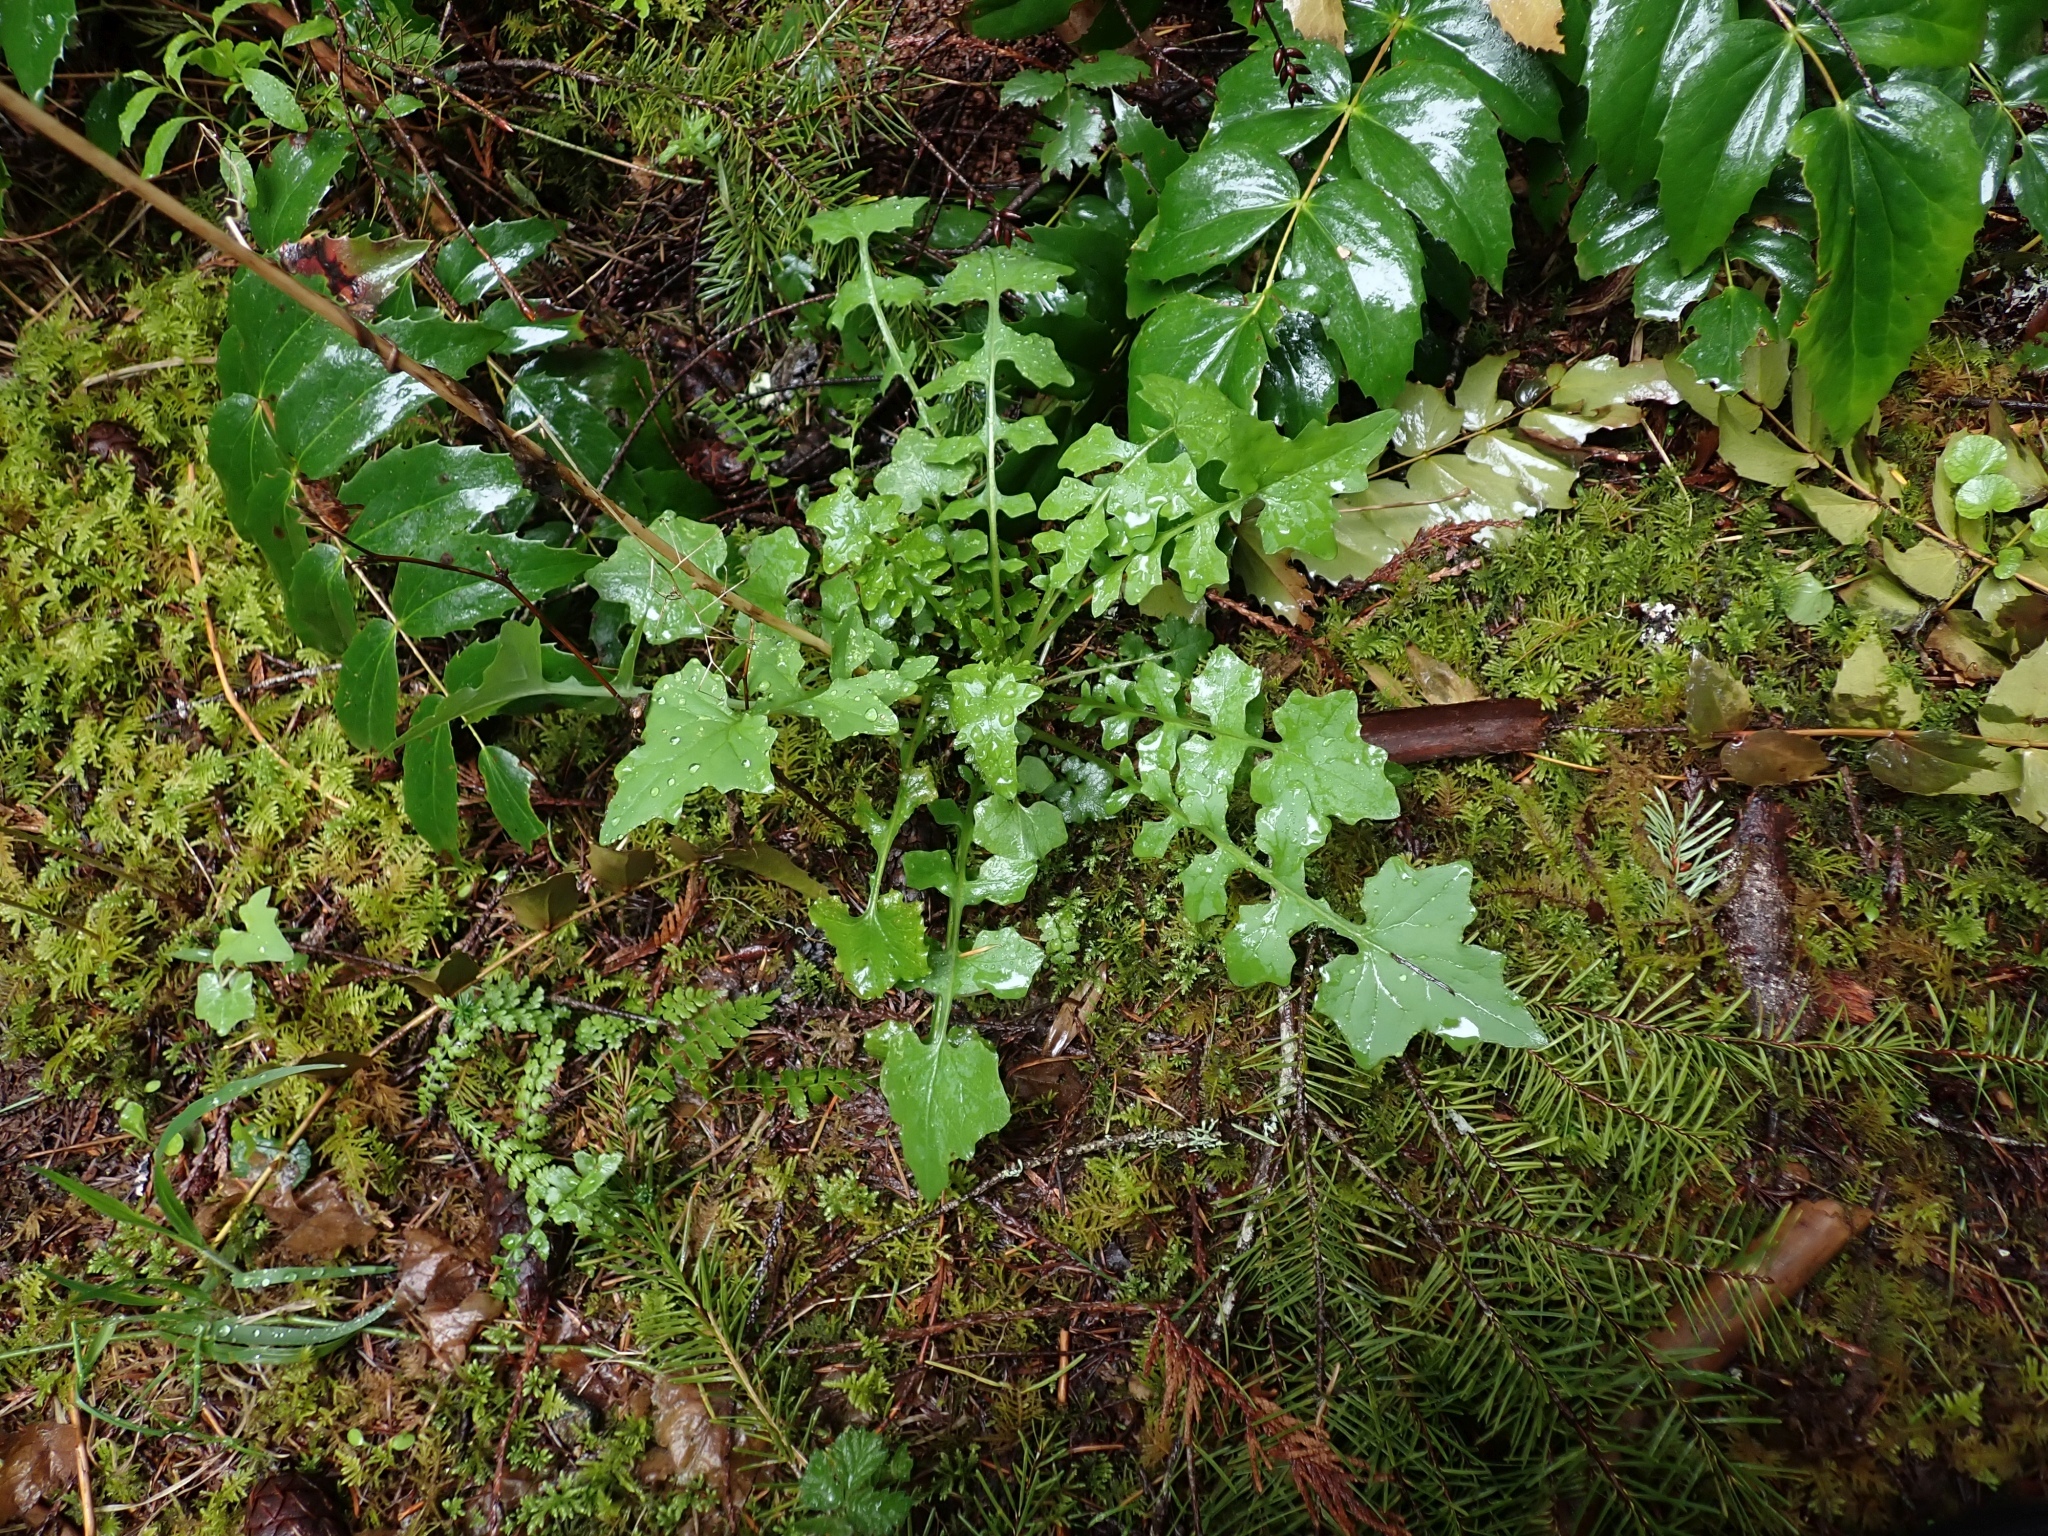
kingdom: Plantae
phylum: Tracheophyta
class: Magnoliopsida
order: Asterales
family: Asteraceae
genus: Mycelis
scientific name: Mycelis muralis
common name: Wall lettuce
